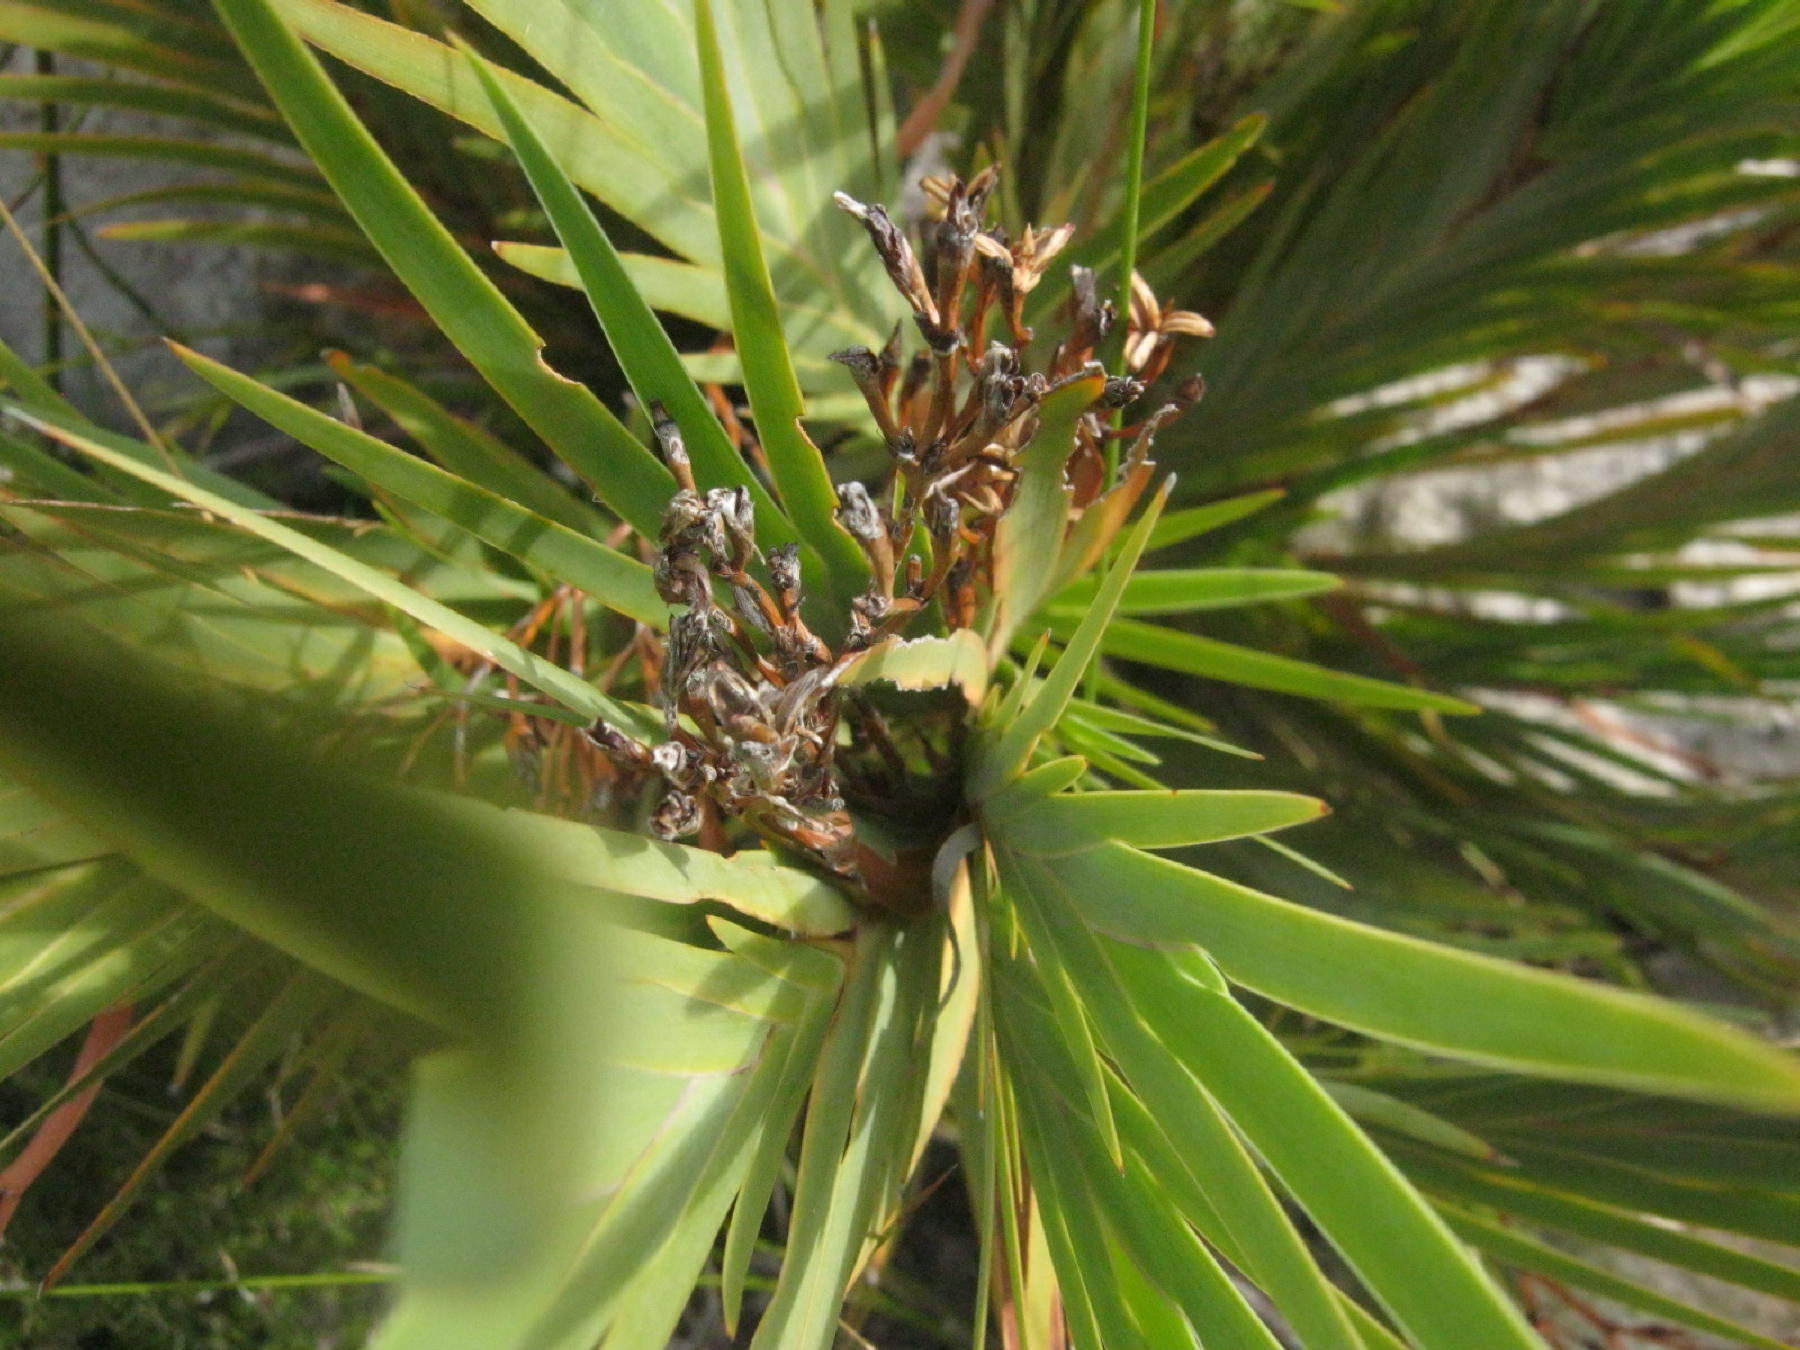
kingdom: Plantae
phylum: Tracheophyta
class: Liliopsida
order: Asparagales
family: Iridaceae
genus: Nivenia
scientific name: Nivenia stokoei
